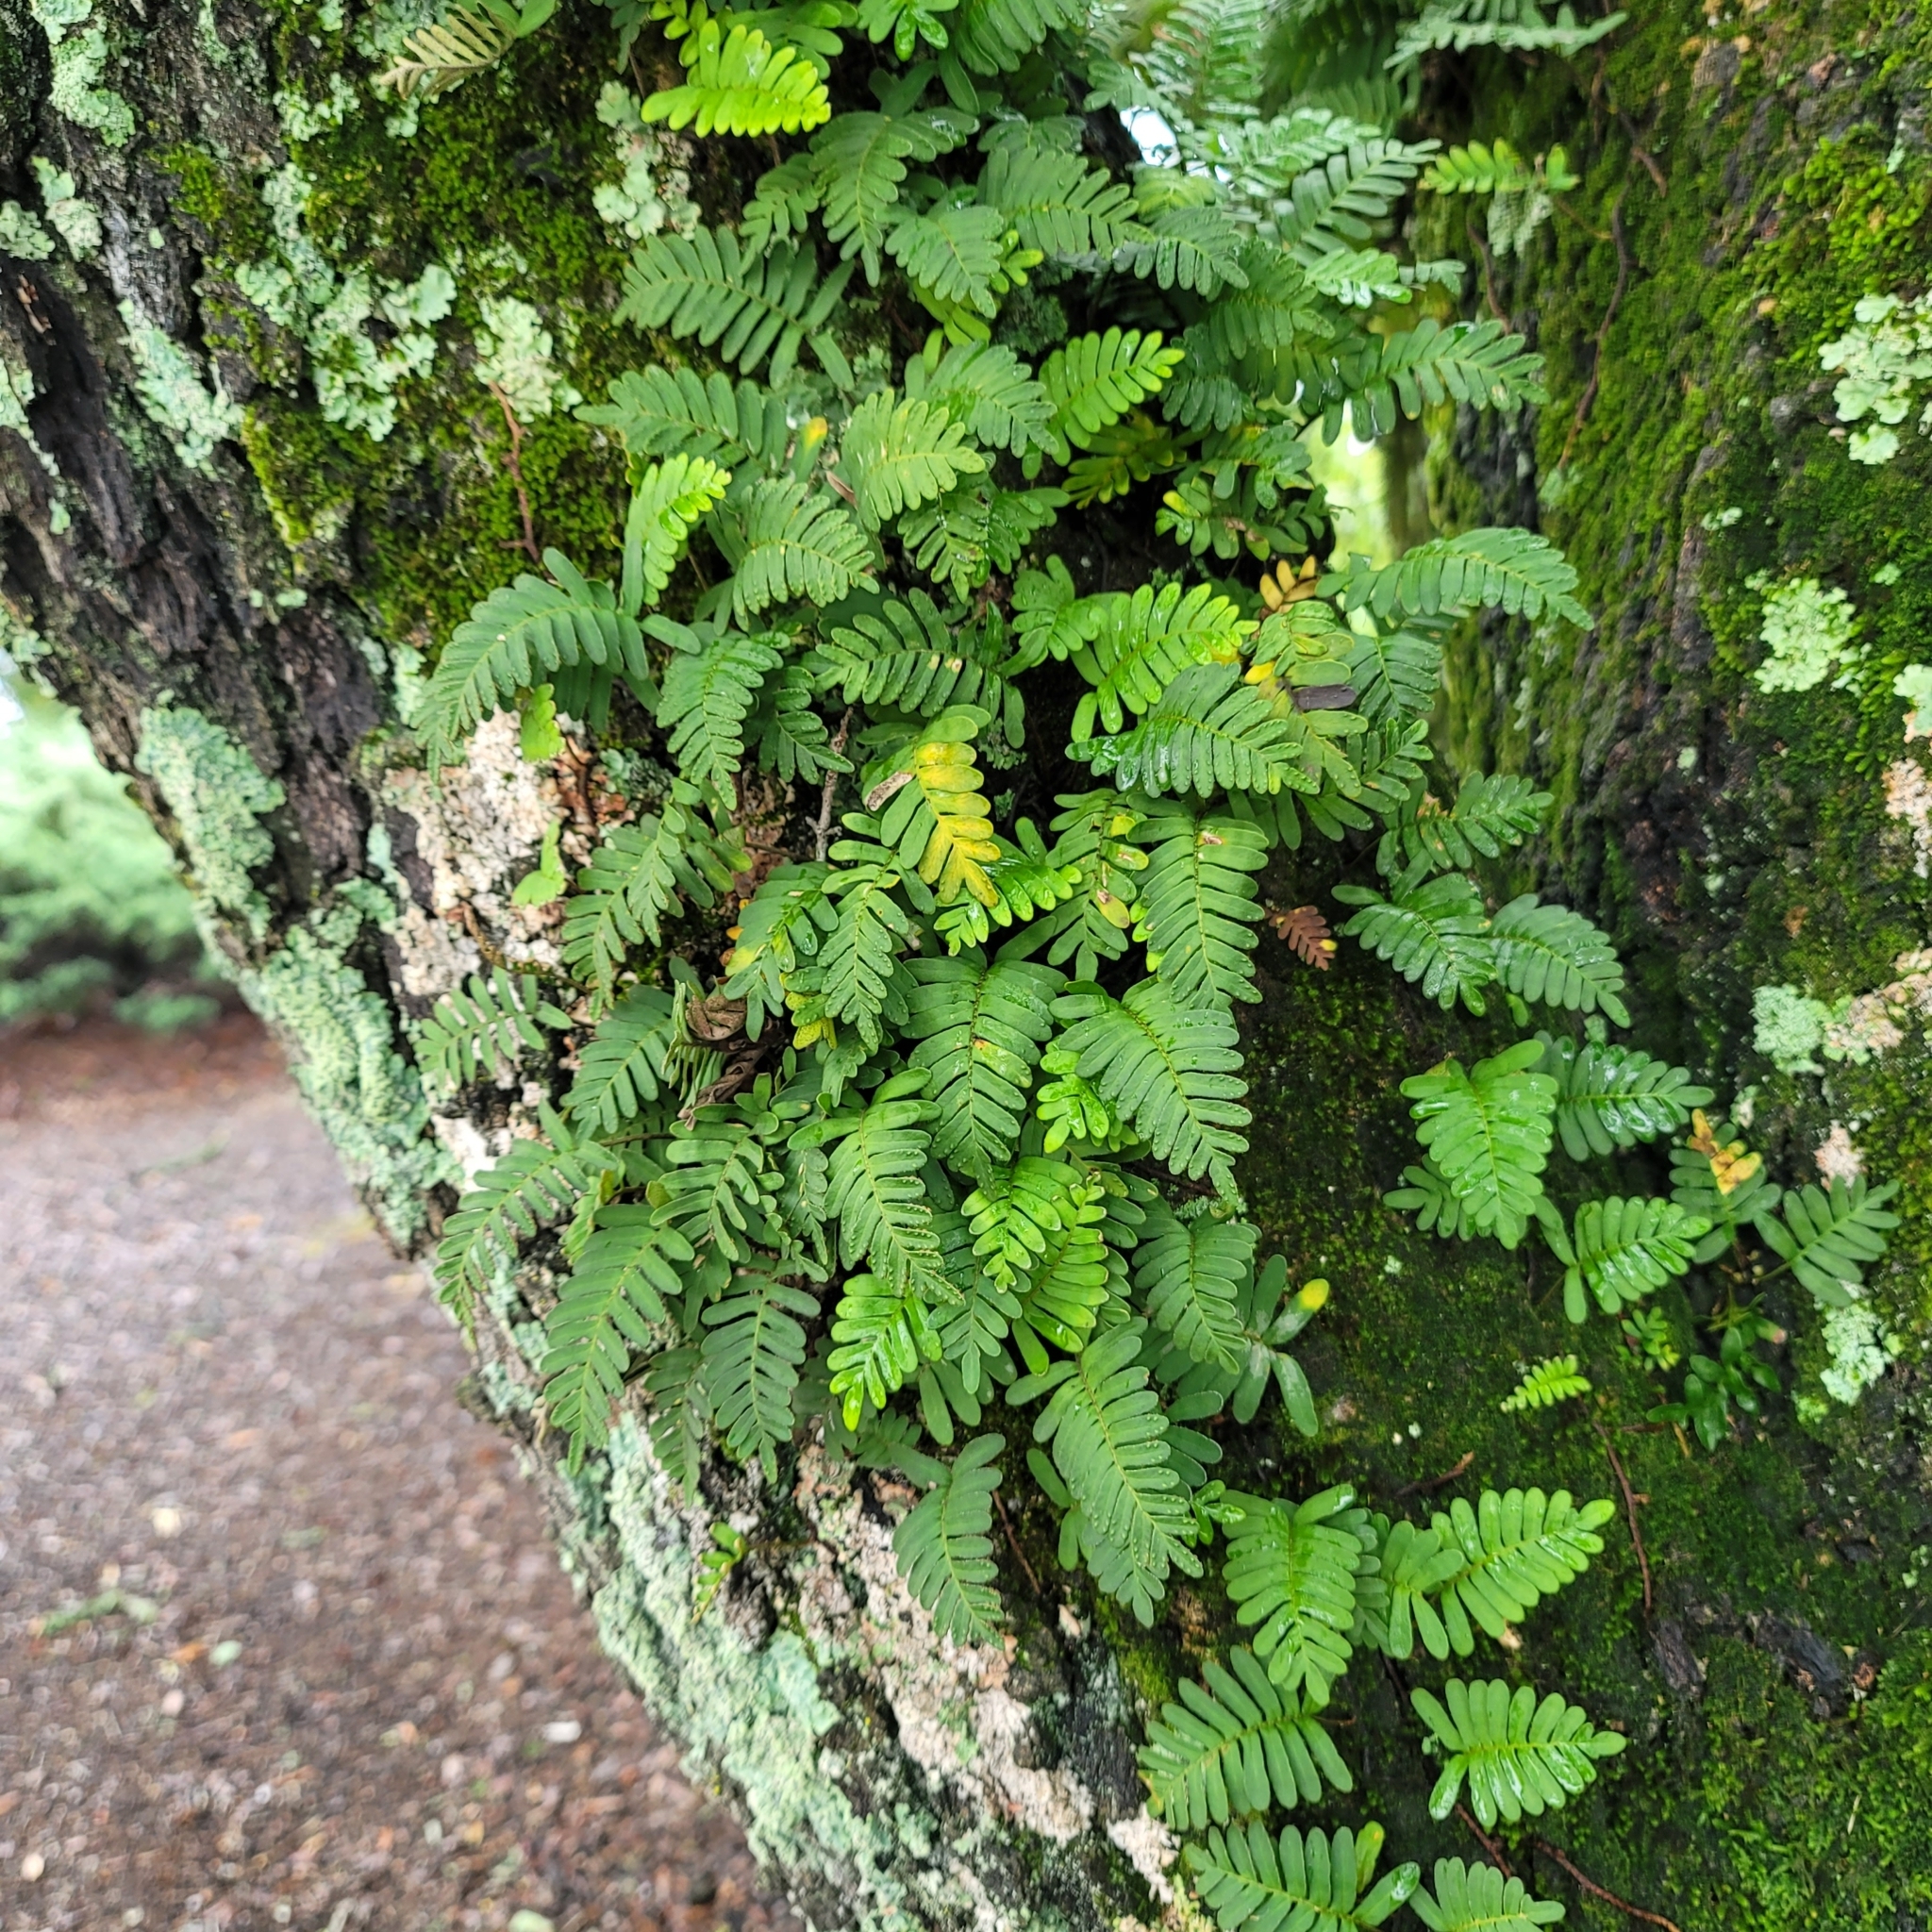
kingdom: Plantae
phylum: Tracheophyta
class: Polypodiopsida
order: Polypodiales
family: Polypodiaceae
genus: Pleopeltis
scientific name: Pleopeltis michauxiana
